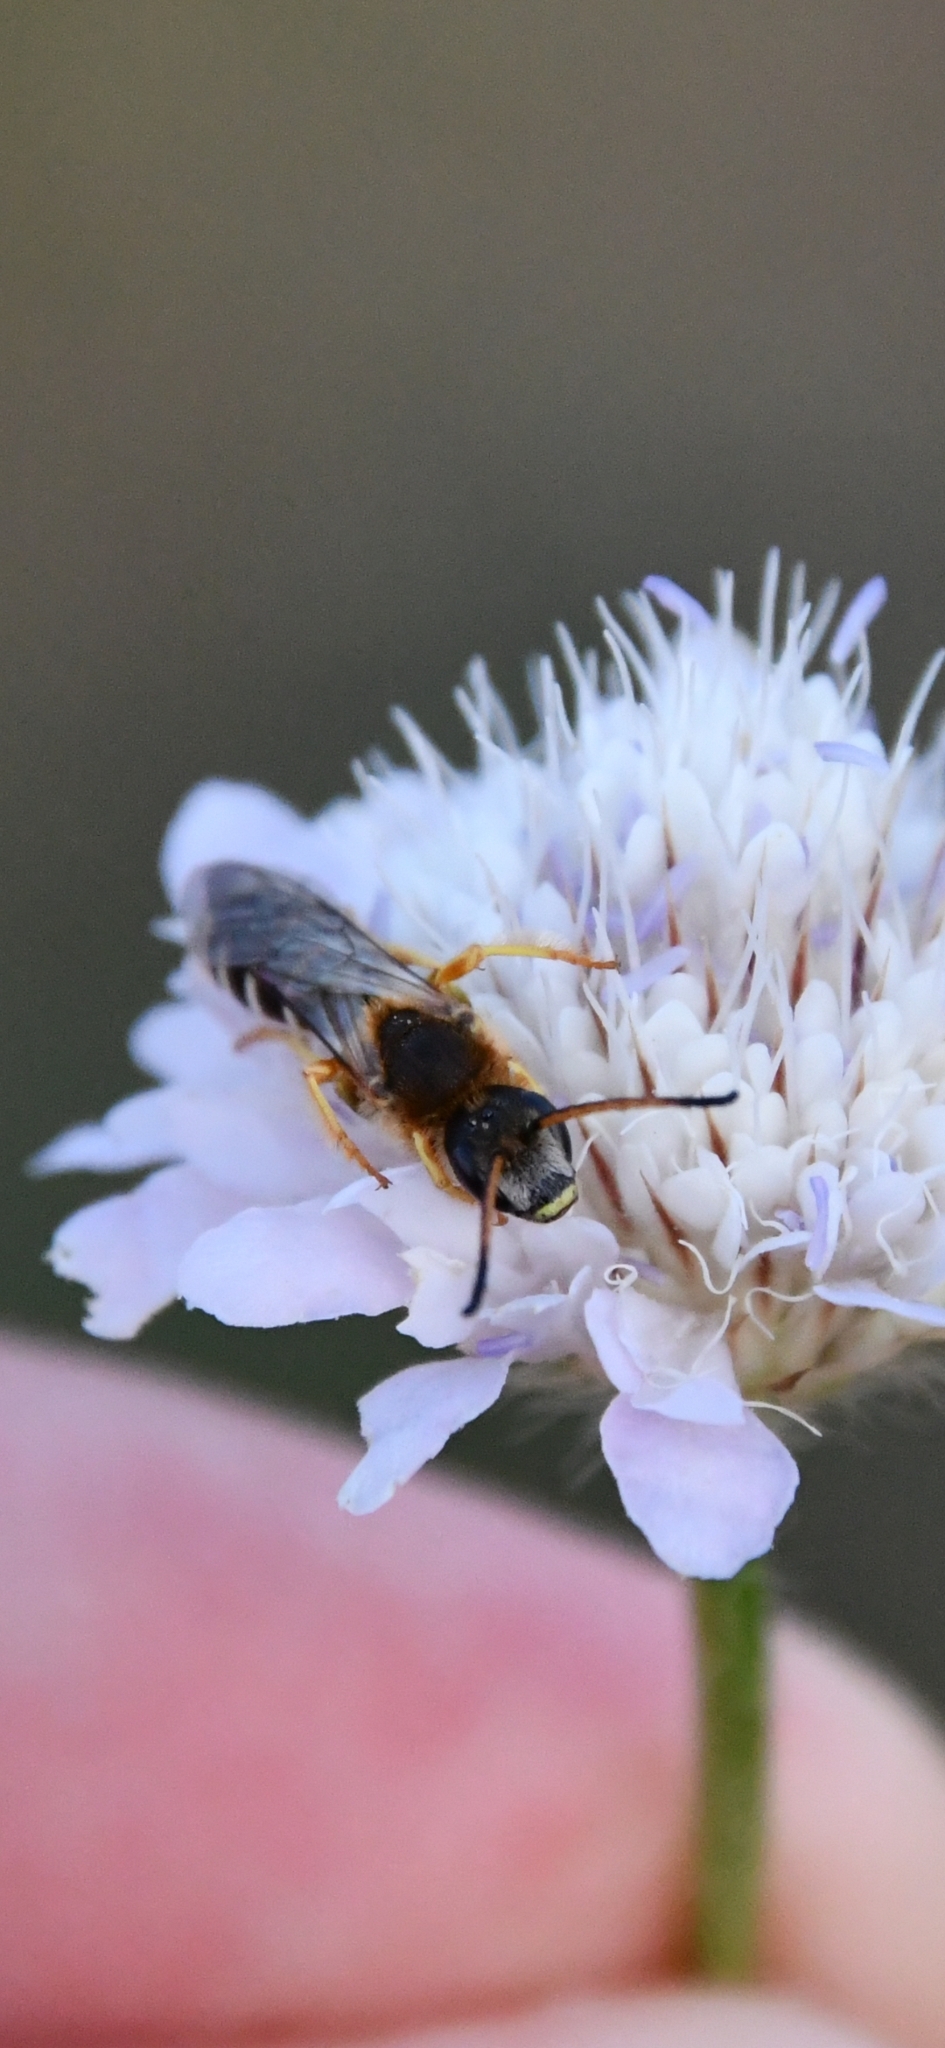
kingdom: Animalia
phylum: Arthropoda
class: Insecta
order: Hymenoptera
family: Halictidae
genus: Halictus
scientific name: Halictus sexcinctus
